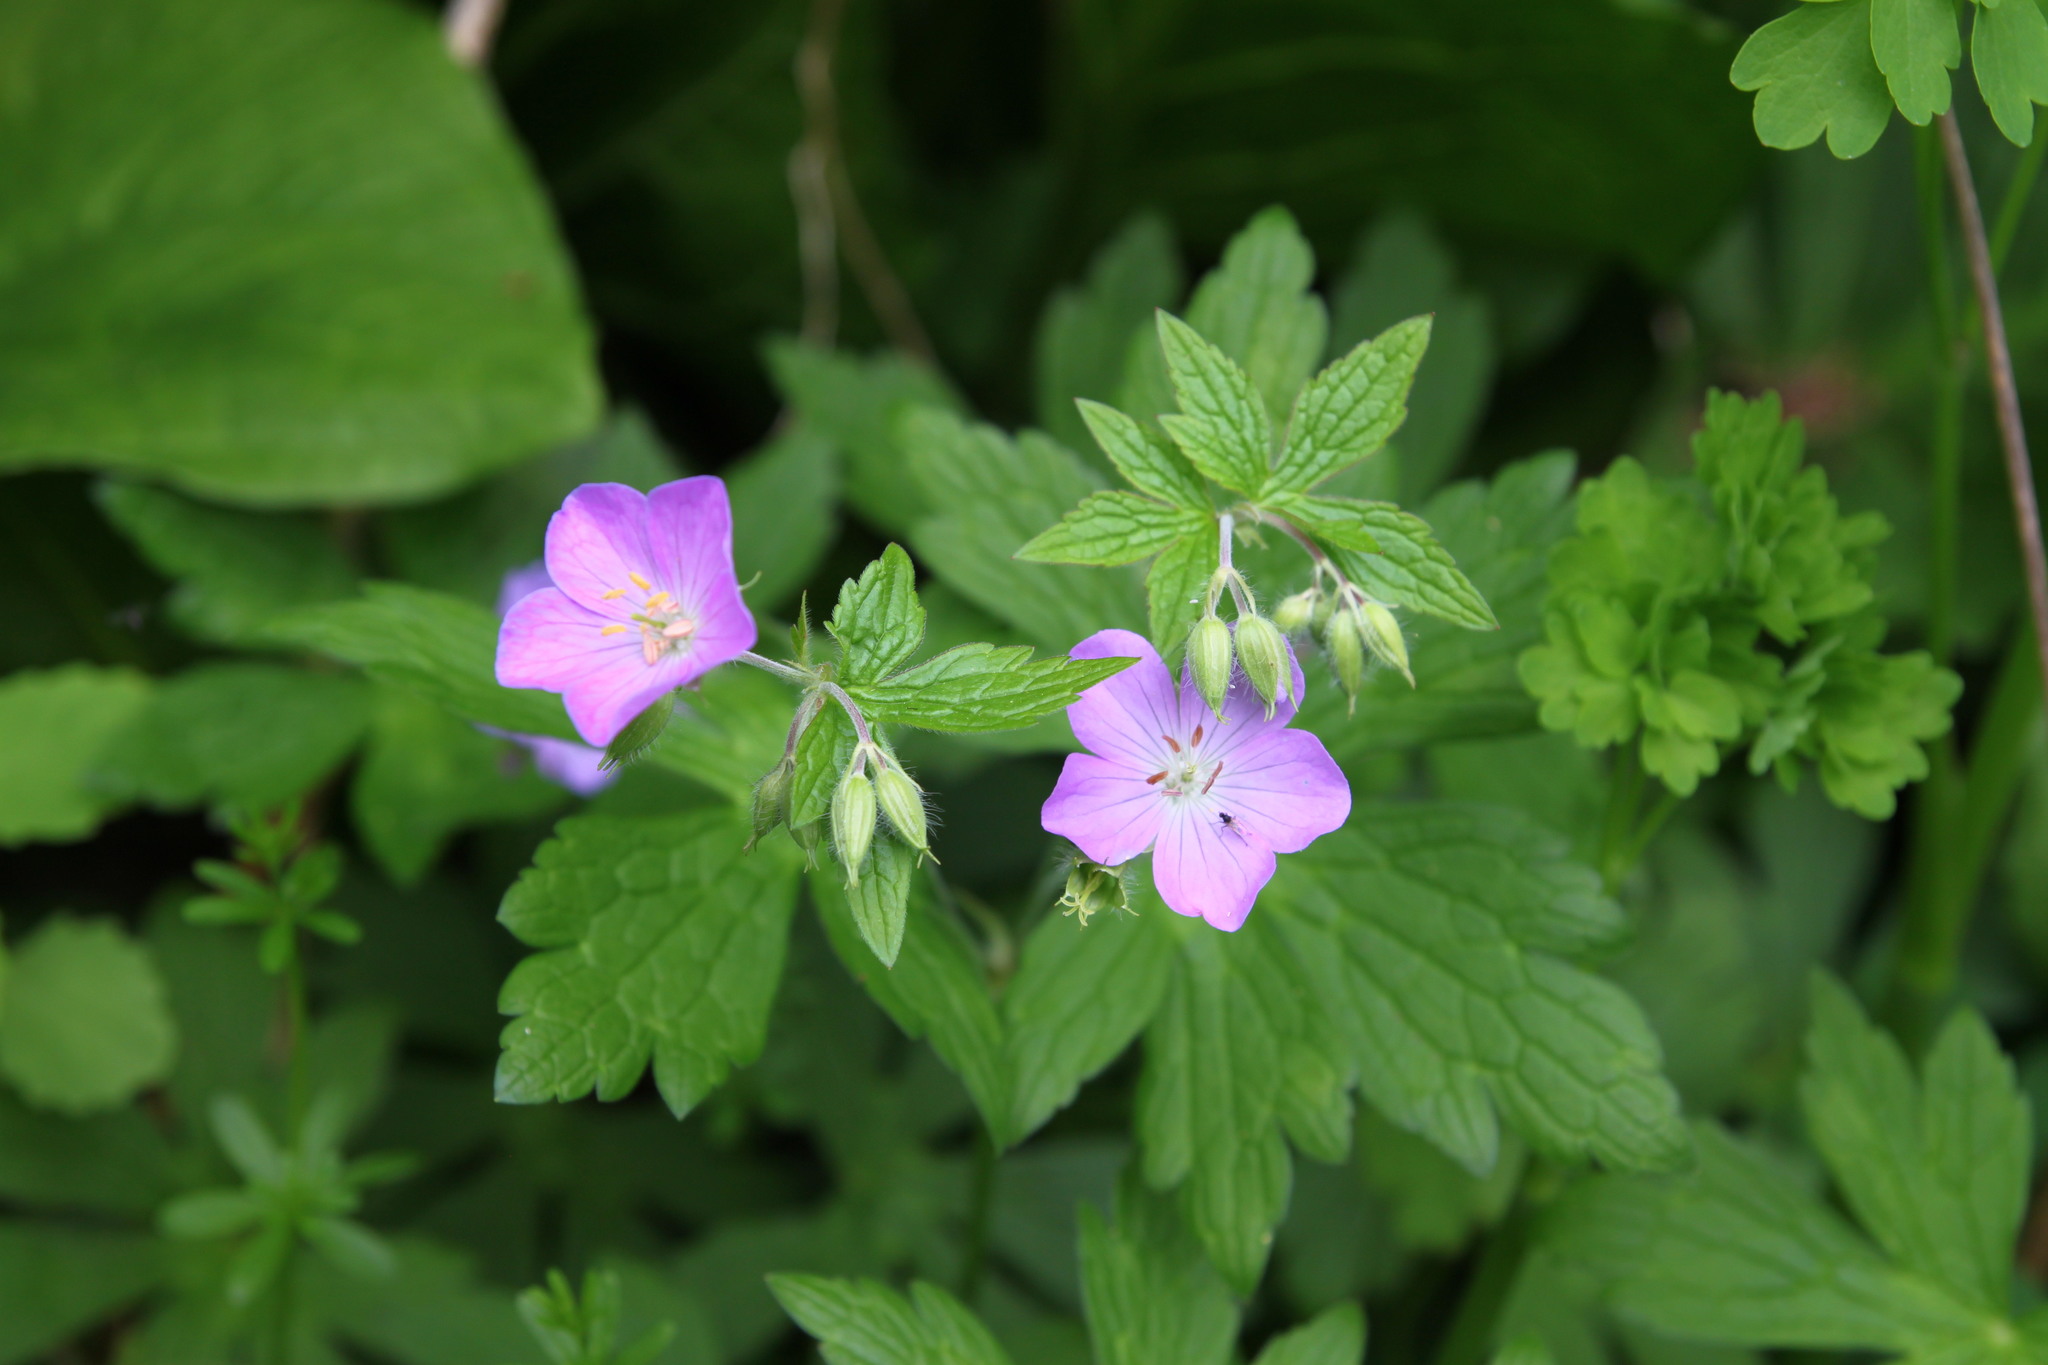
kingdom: Plantae
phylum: Tracheophyta
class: Magnoliopsida
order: Geraniales
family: Geraniaceae
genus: Geranium
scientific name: Geranium maculatum
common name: Spotted geranium
